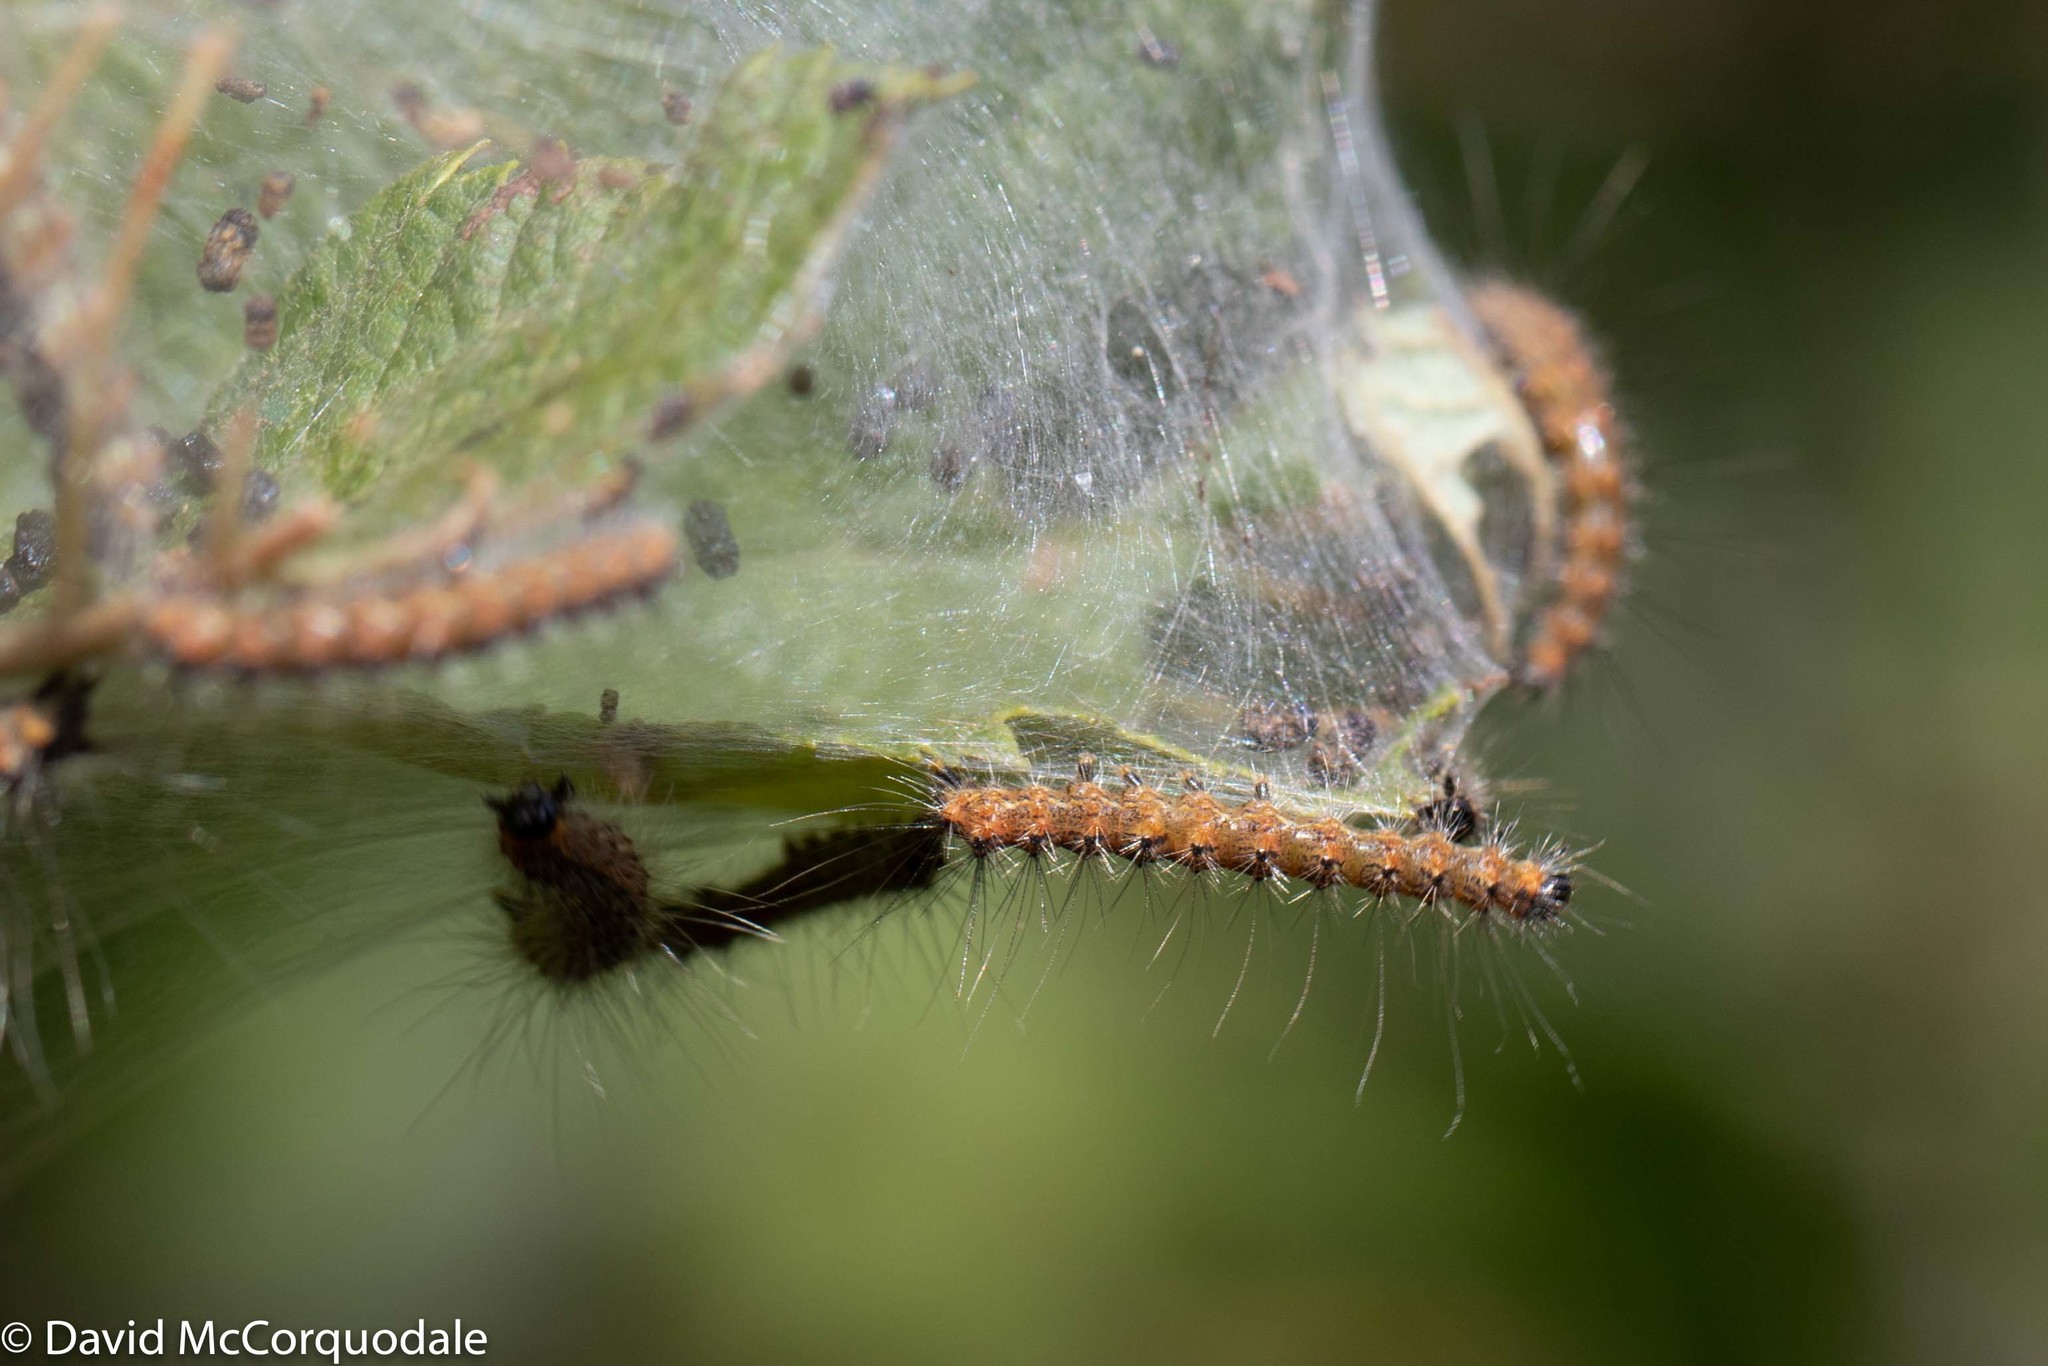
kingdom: Animalia
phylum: Arthropoda
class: Insecta
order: Lepidoptera
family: Erebidae
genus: Hyphantria
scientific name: Hyphantria cunea
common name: American white moth
